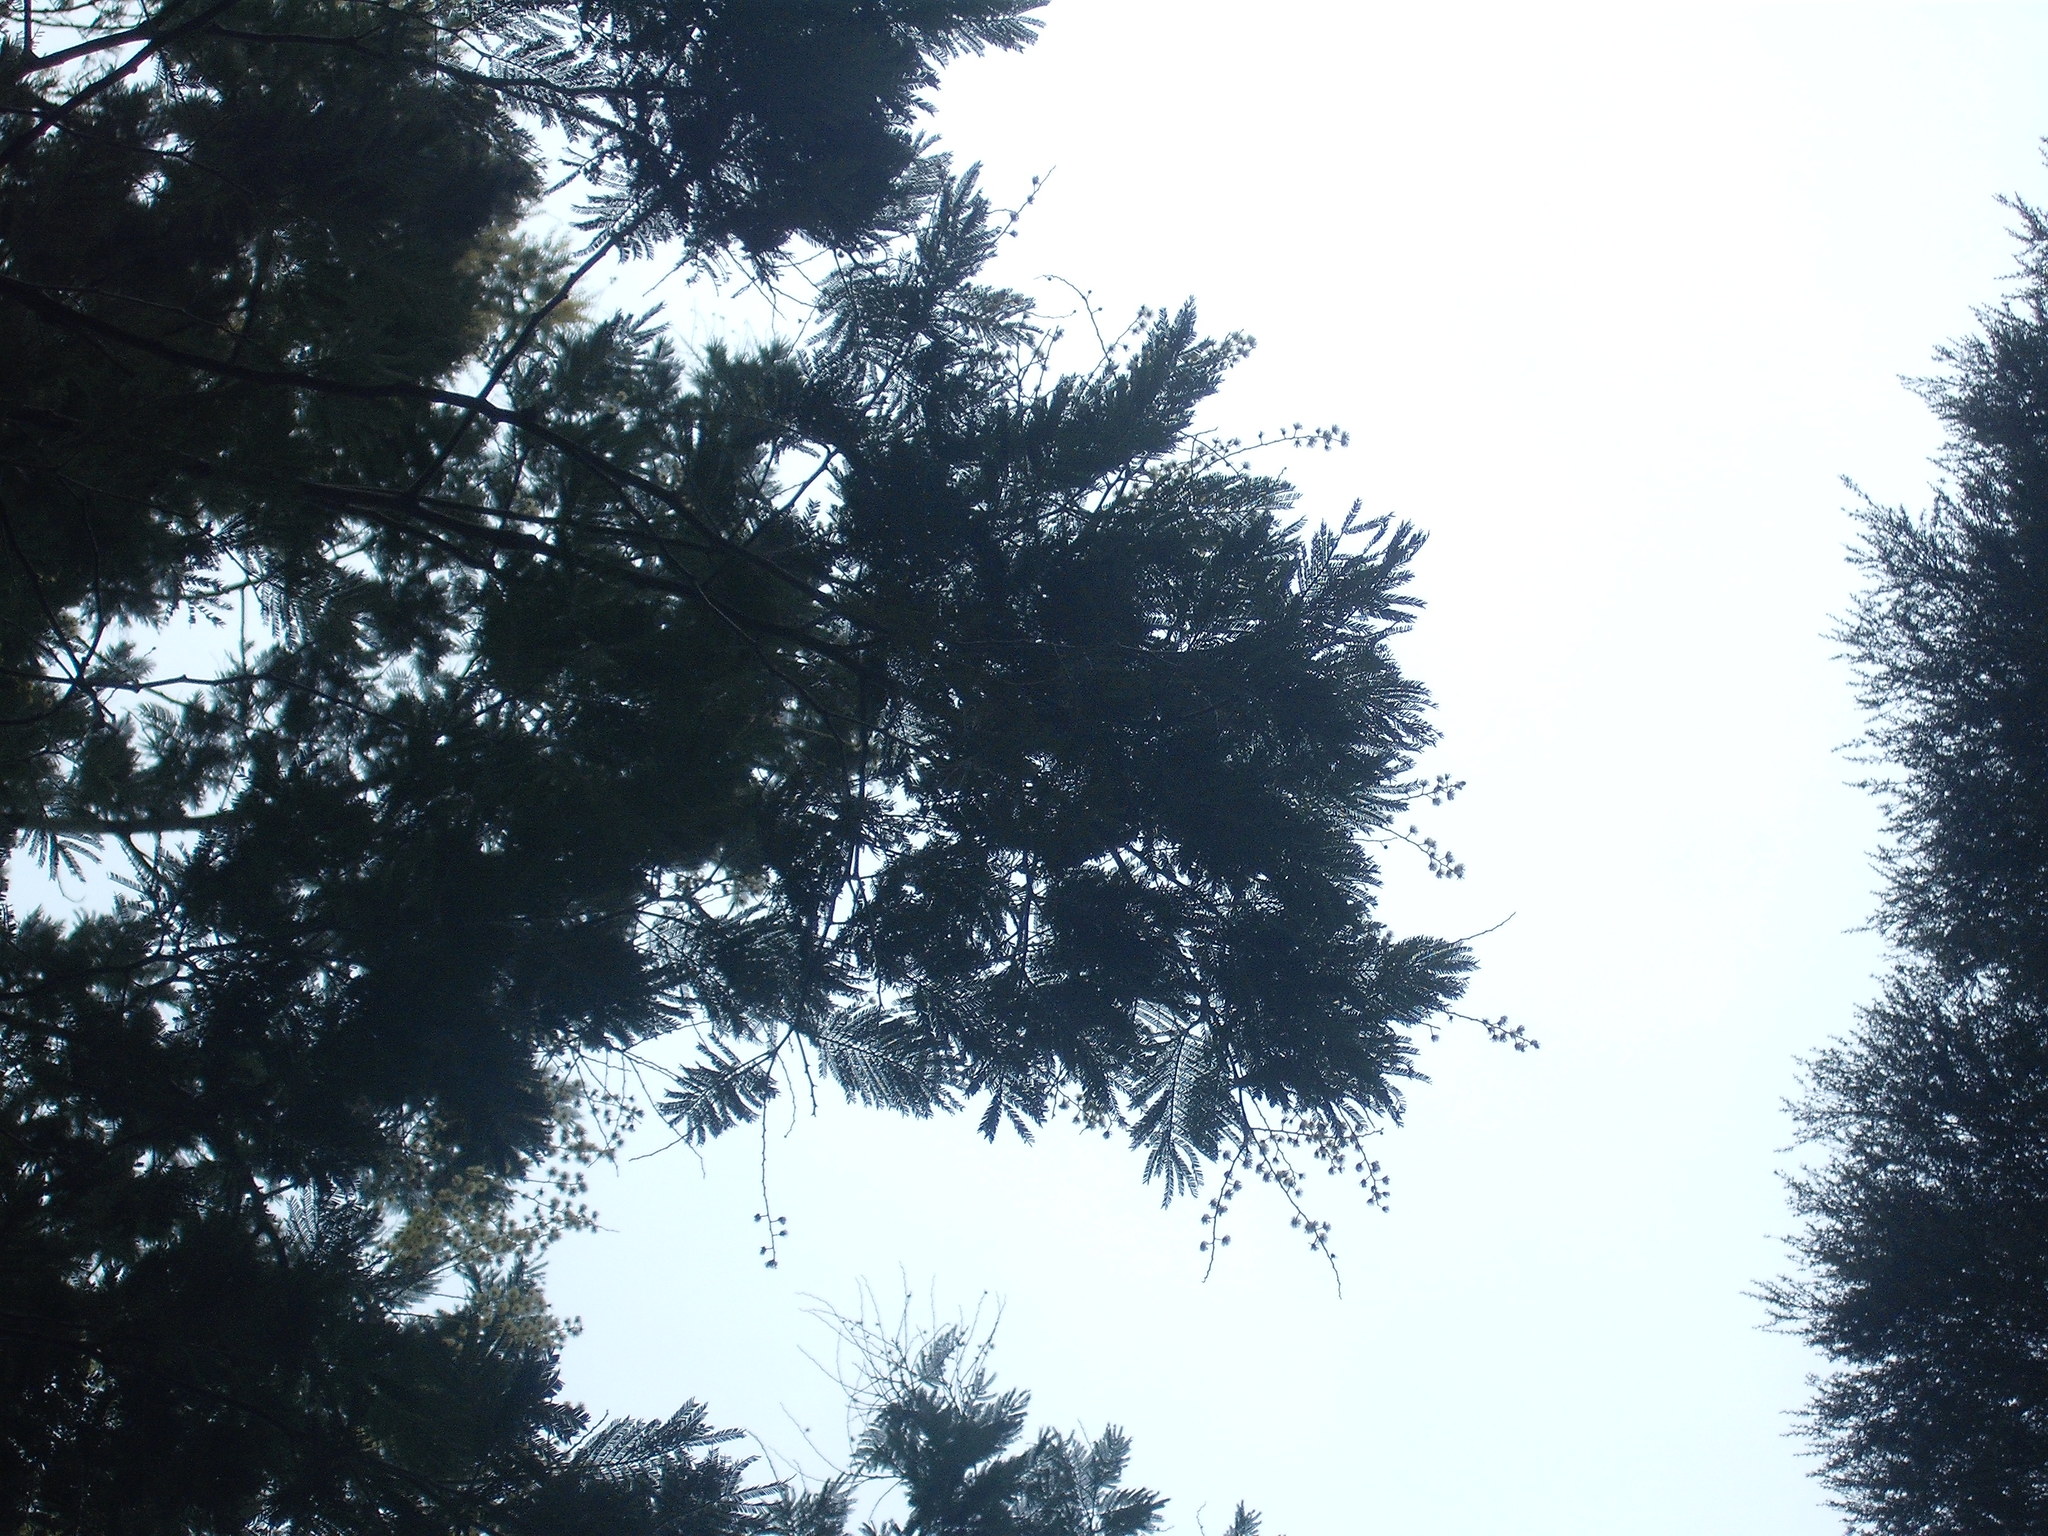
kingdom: Plantae
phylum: Tracheophyta
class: Magnoliopsida
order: Fabales
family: Fabaceae
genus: Acacia
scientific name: Acacia dealbata
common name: Silver wattle
